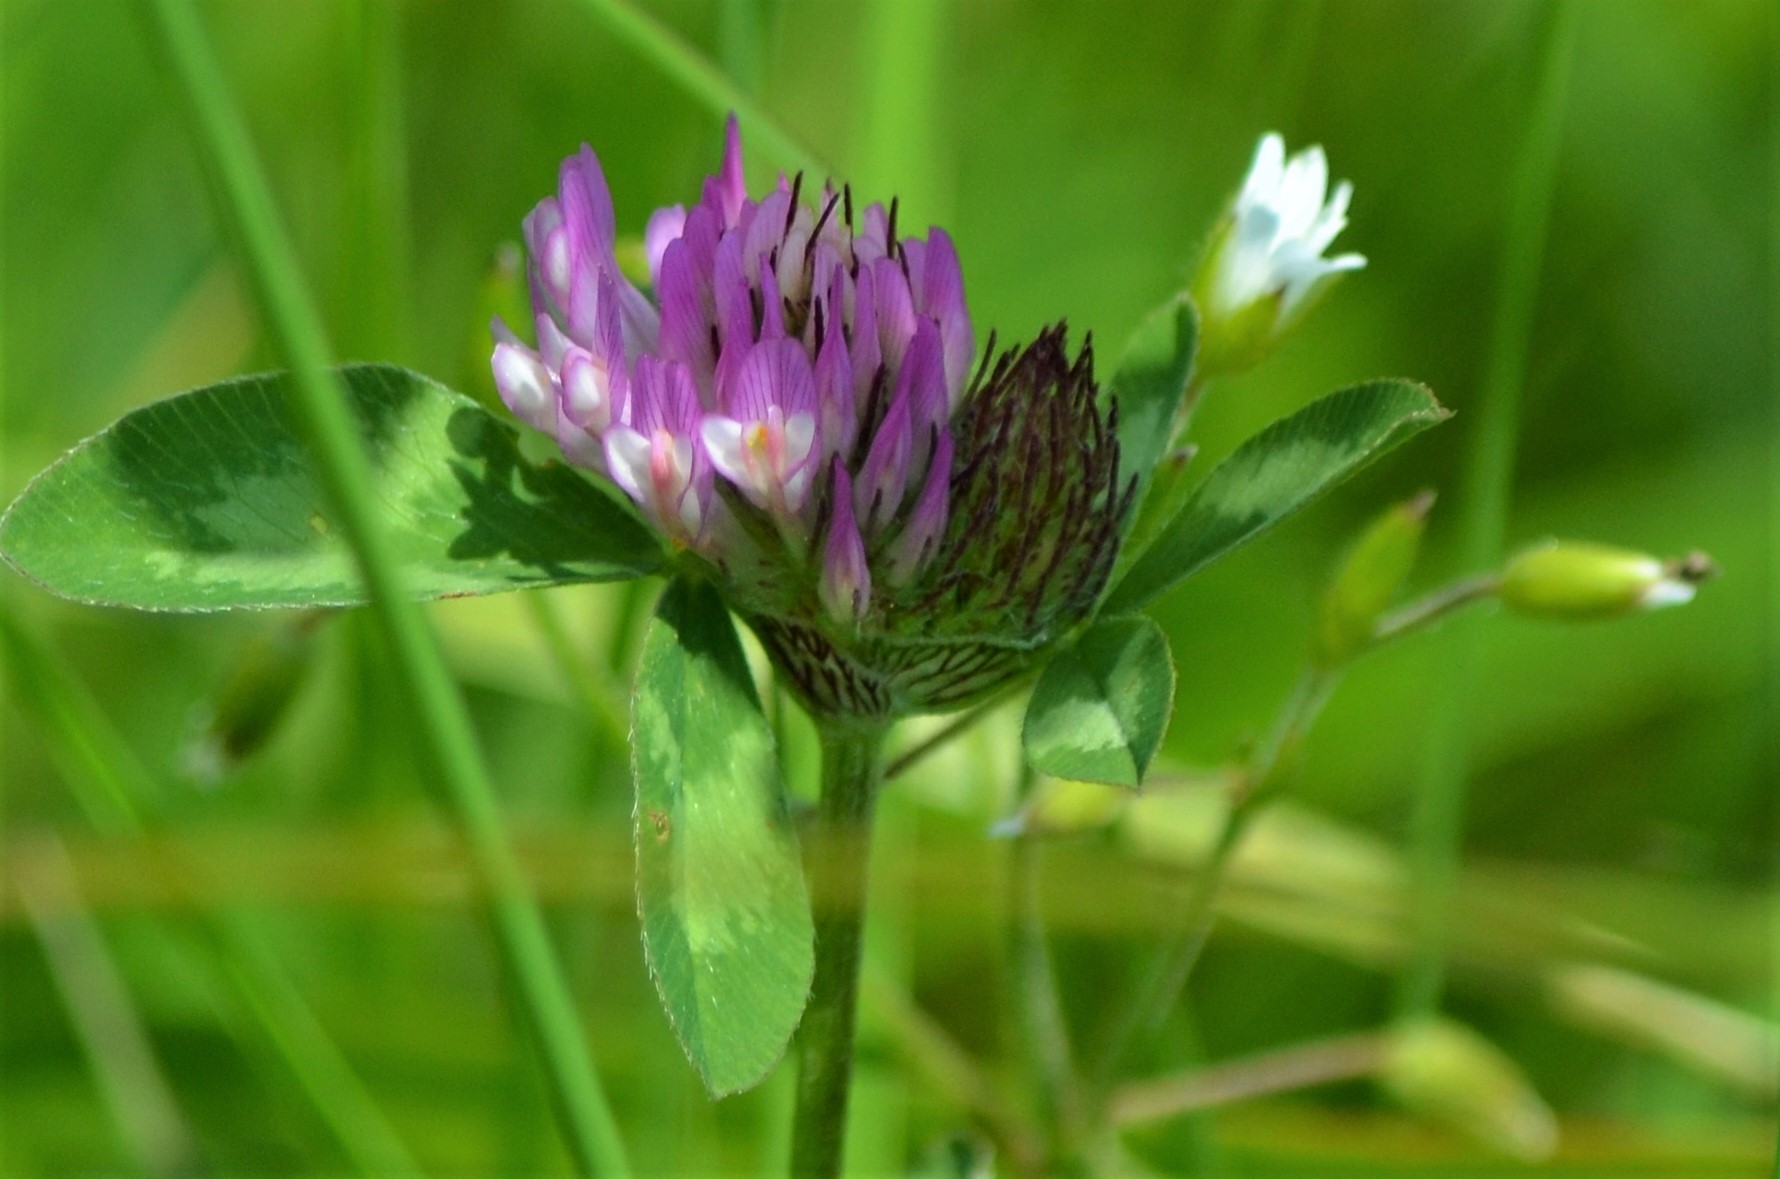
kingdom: Plantae
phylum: Tracheophyta
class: Magnoliopsida
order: Fabales
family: Fabaceae
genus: Trifolium
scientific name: Trifolium pratense
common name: Red clover
